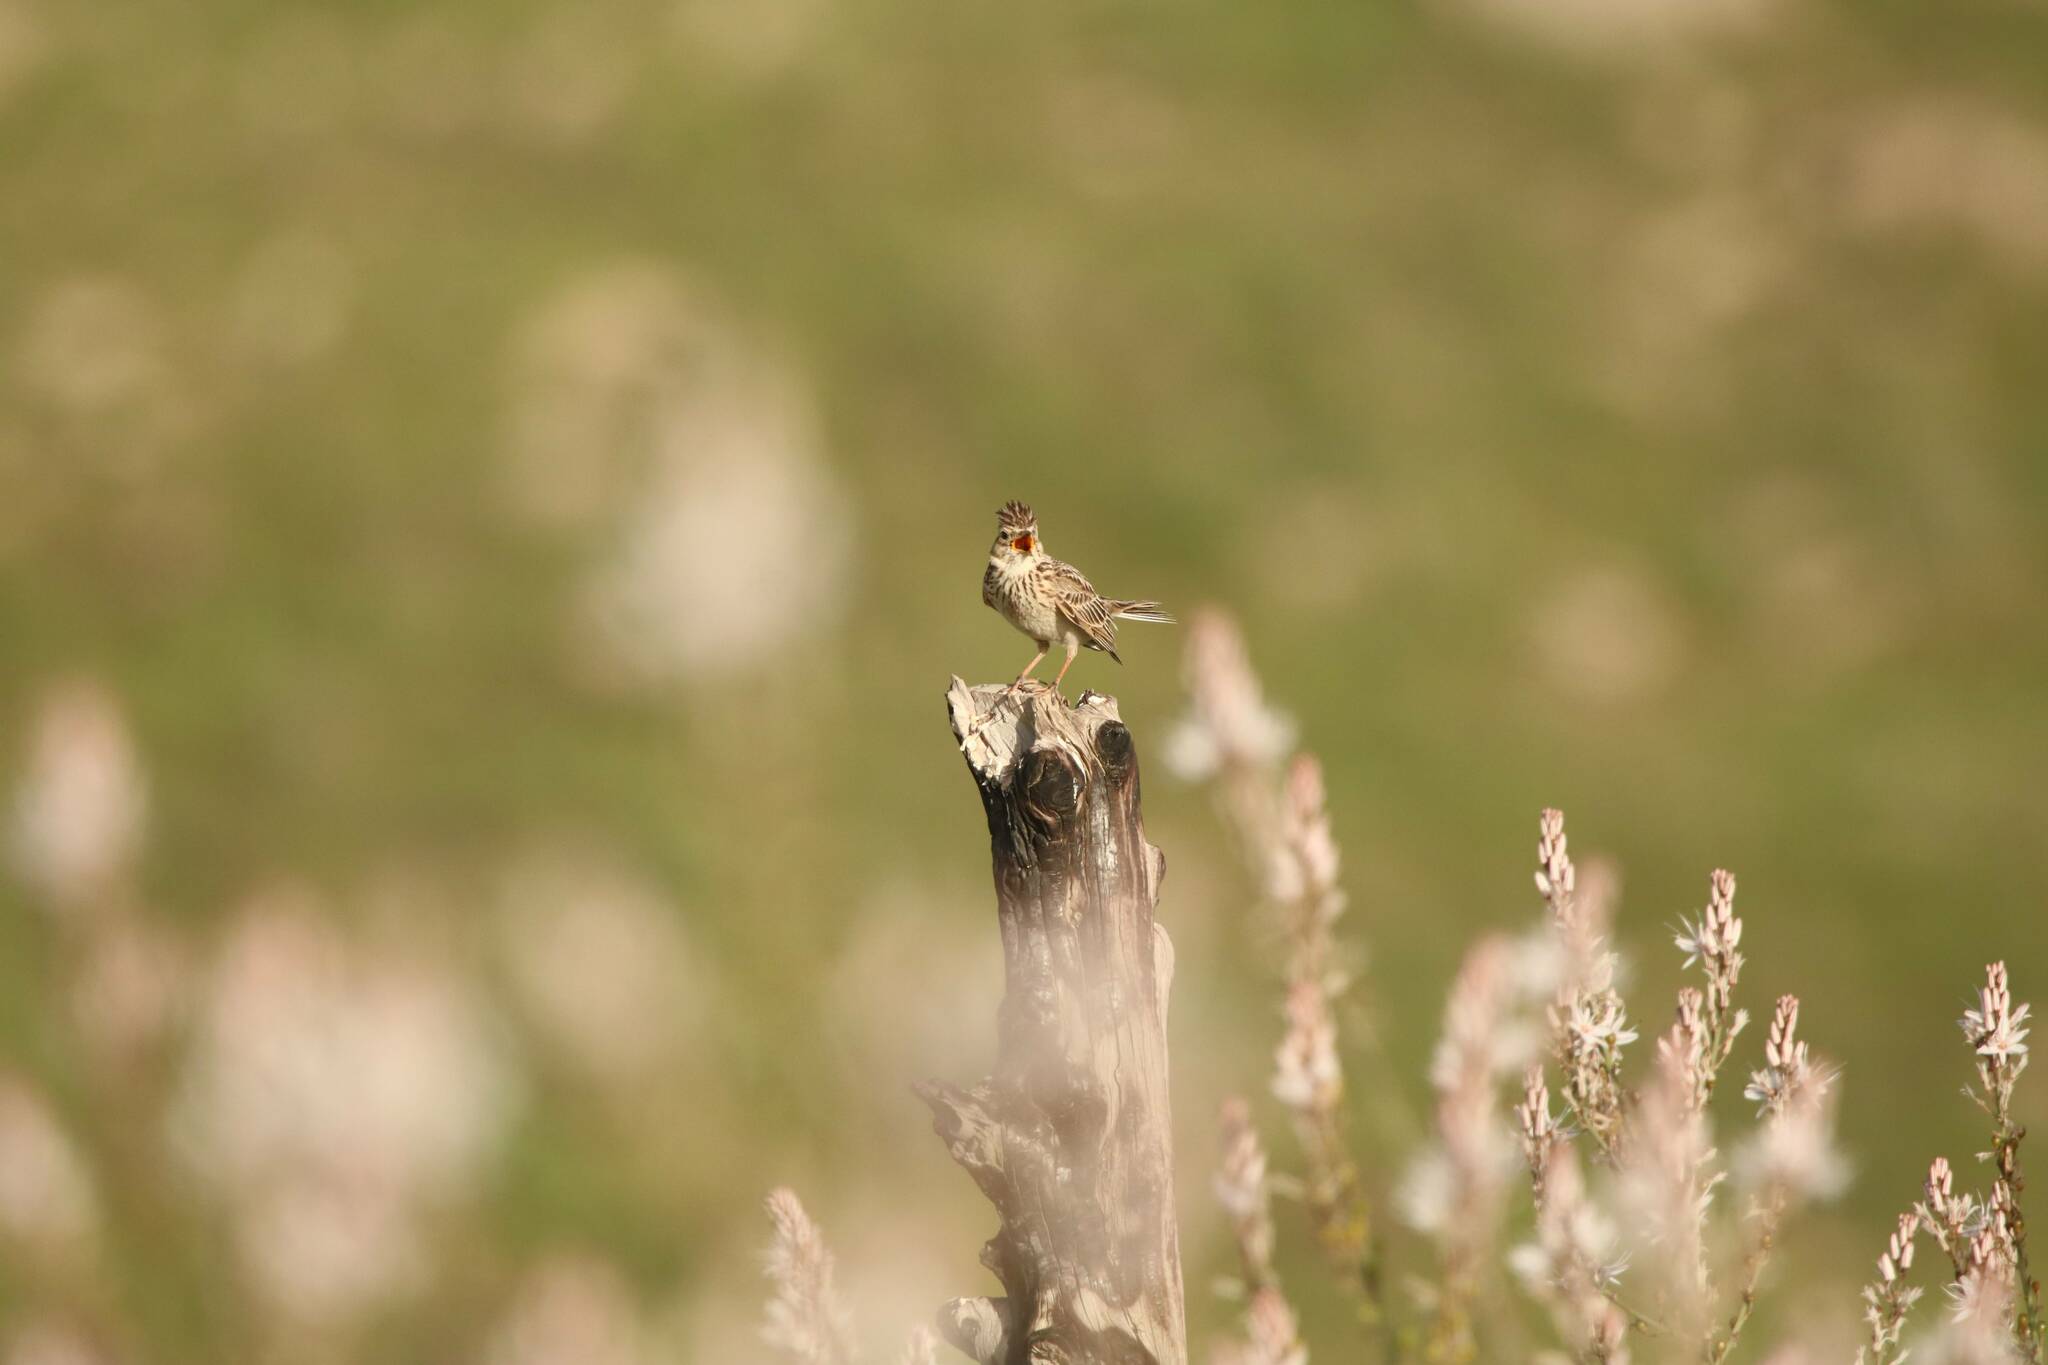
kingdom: Animalia
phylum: Chordata
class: Aves
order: Passeriformes
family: Alaudidae
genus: Alauda
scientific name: Alauda arvensis
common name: Eurasian skylark
